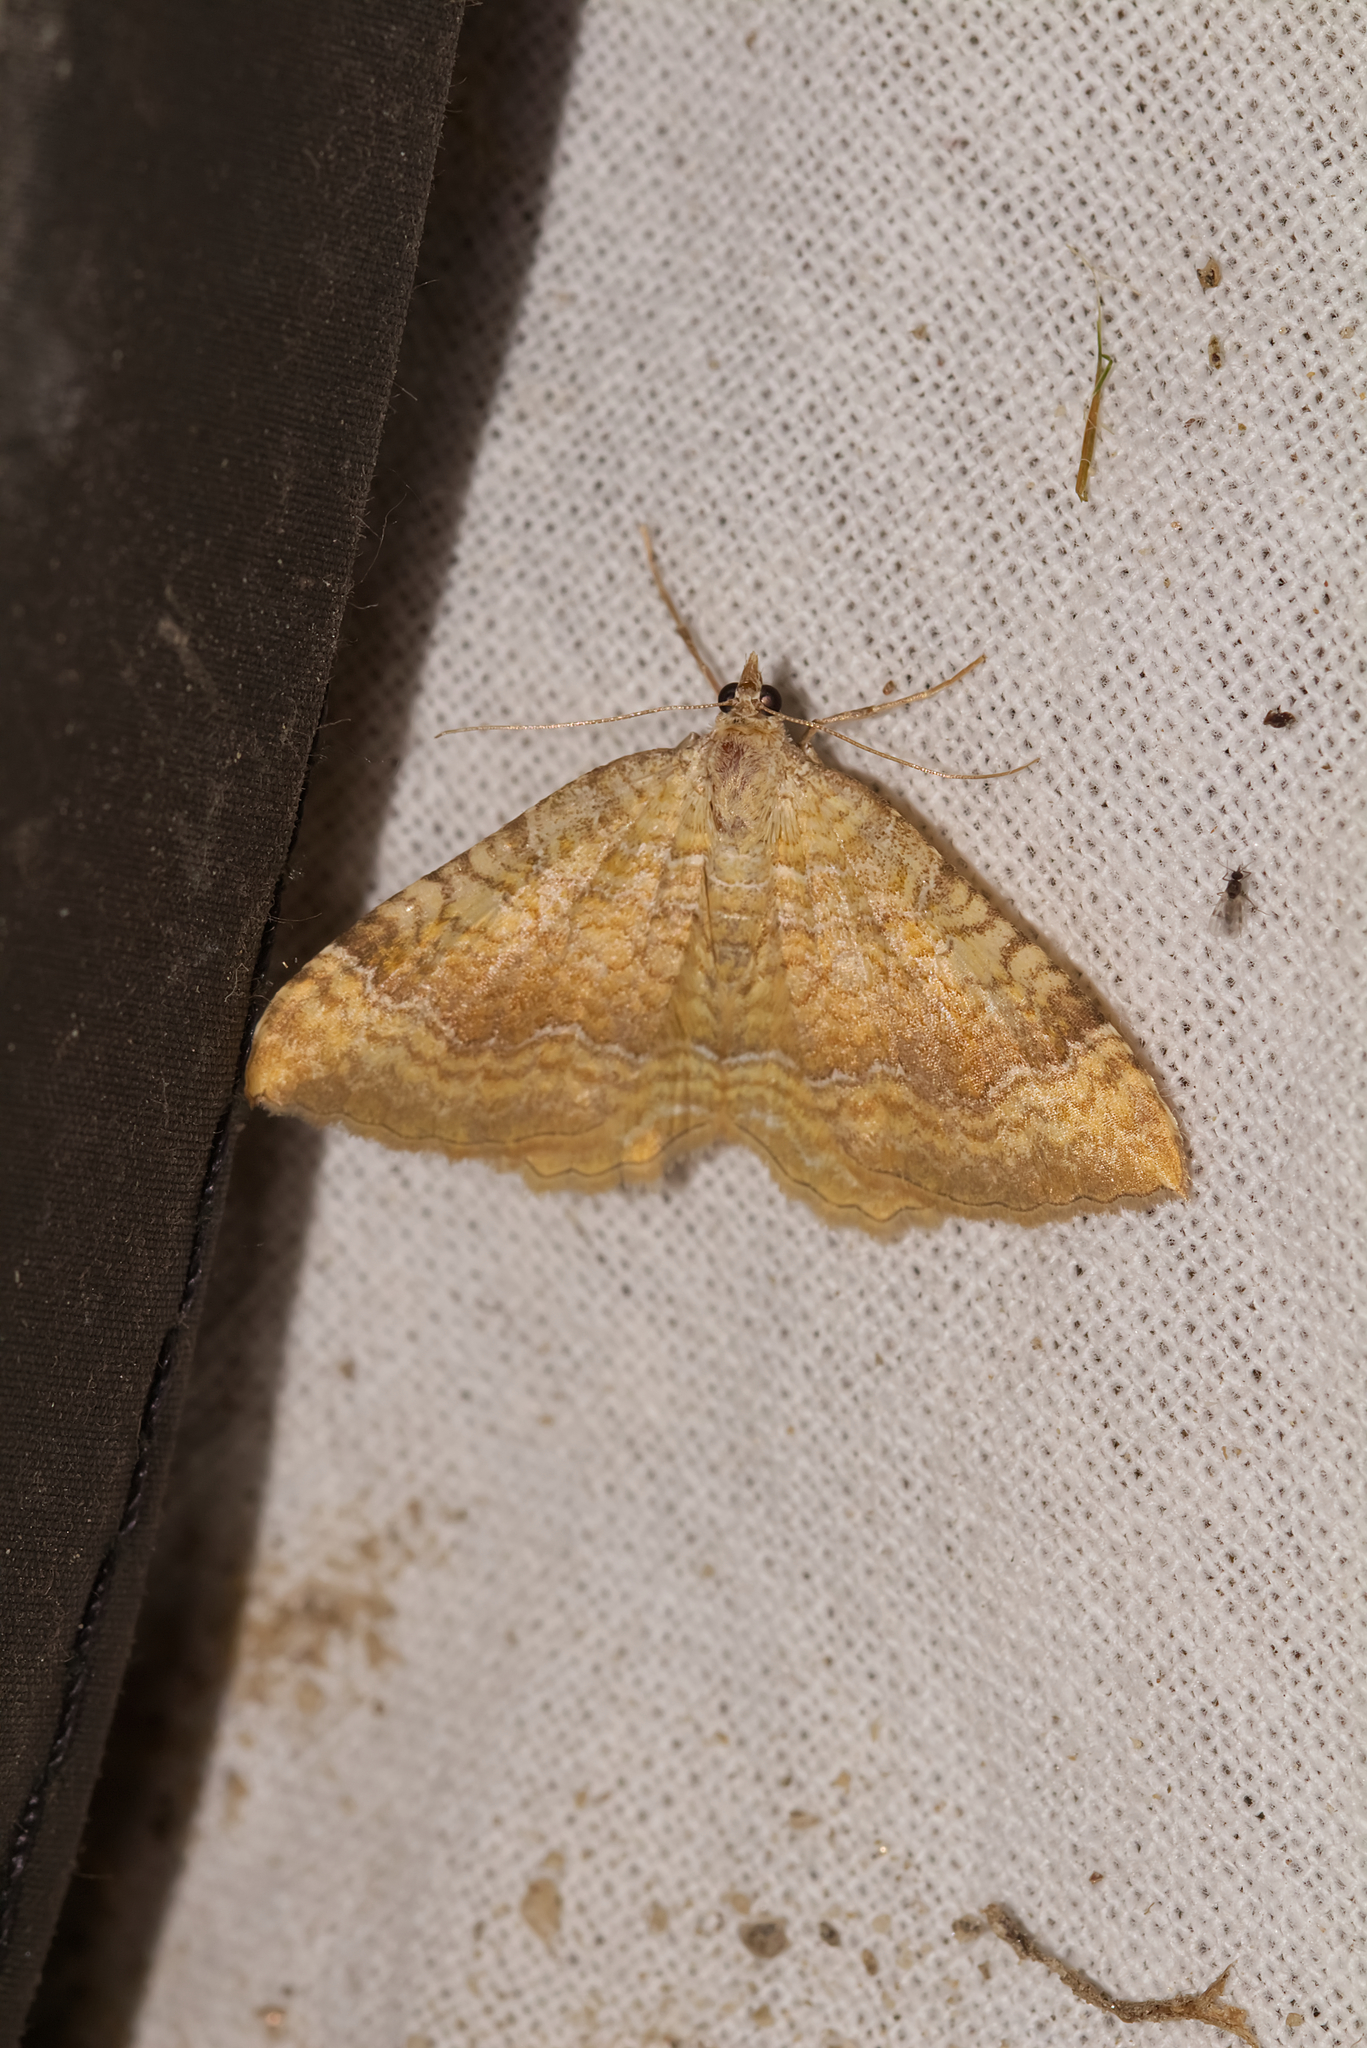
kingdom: Animalia
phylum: Arthropoda
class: Insecta
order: Lepidoptera
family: Geometridae
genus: Camptogramma
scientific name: Camptogramma bilineata
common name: Yellow shell
